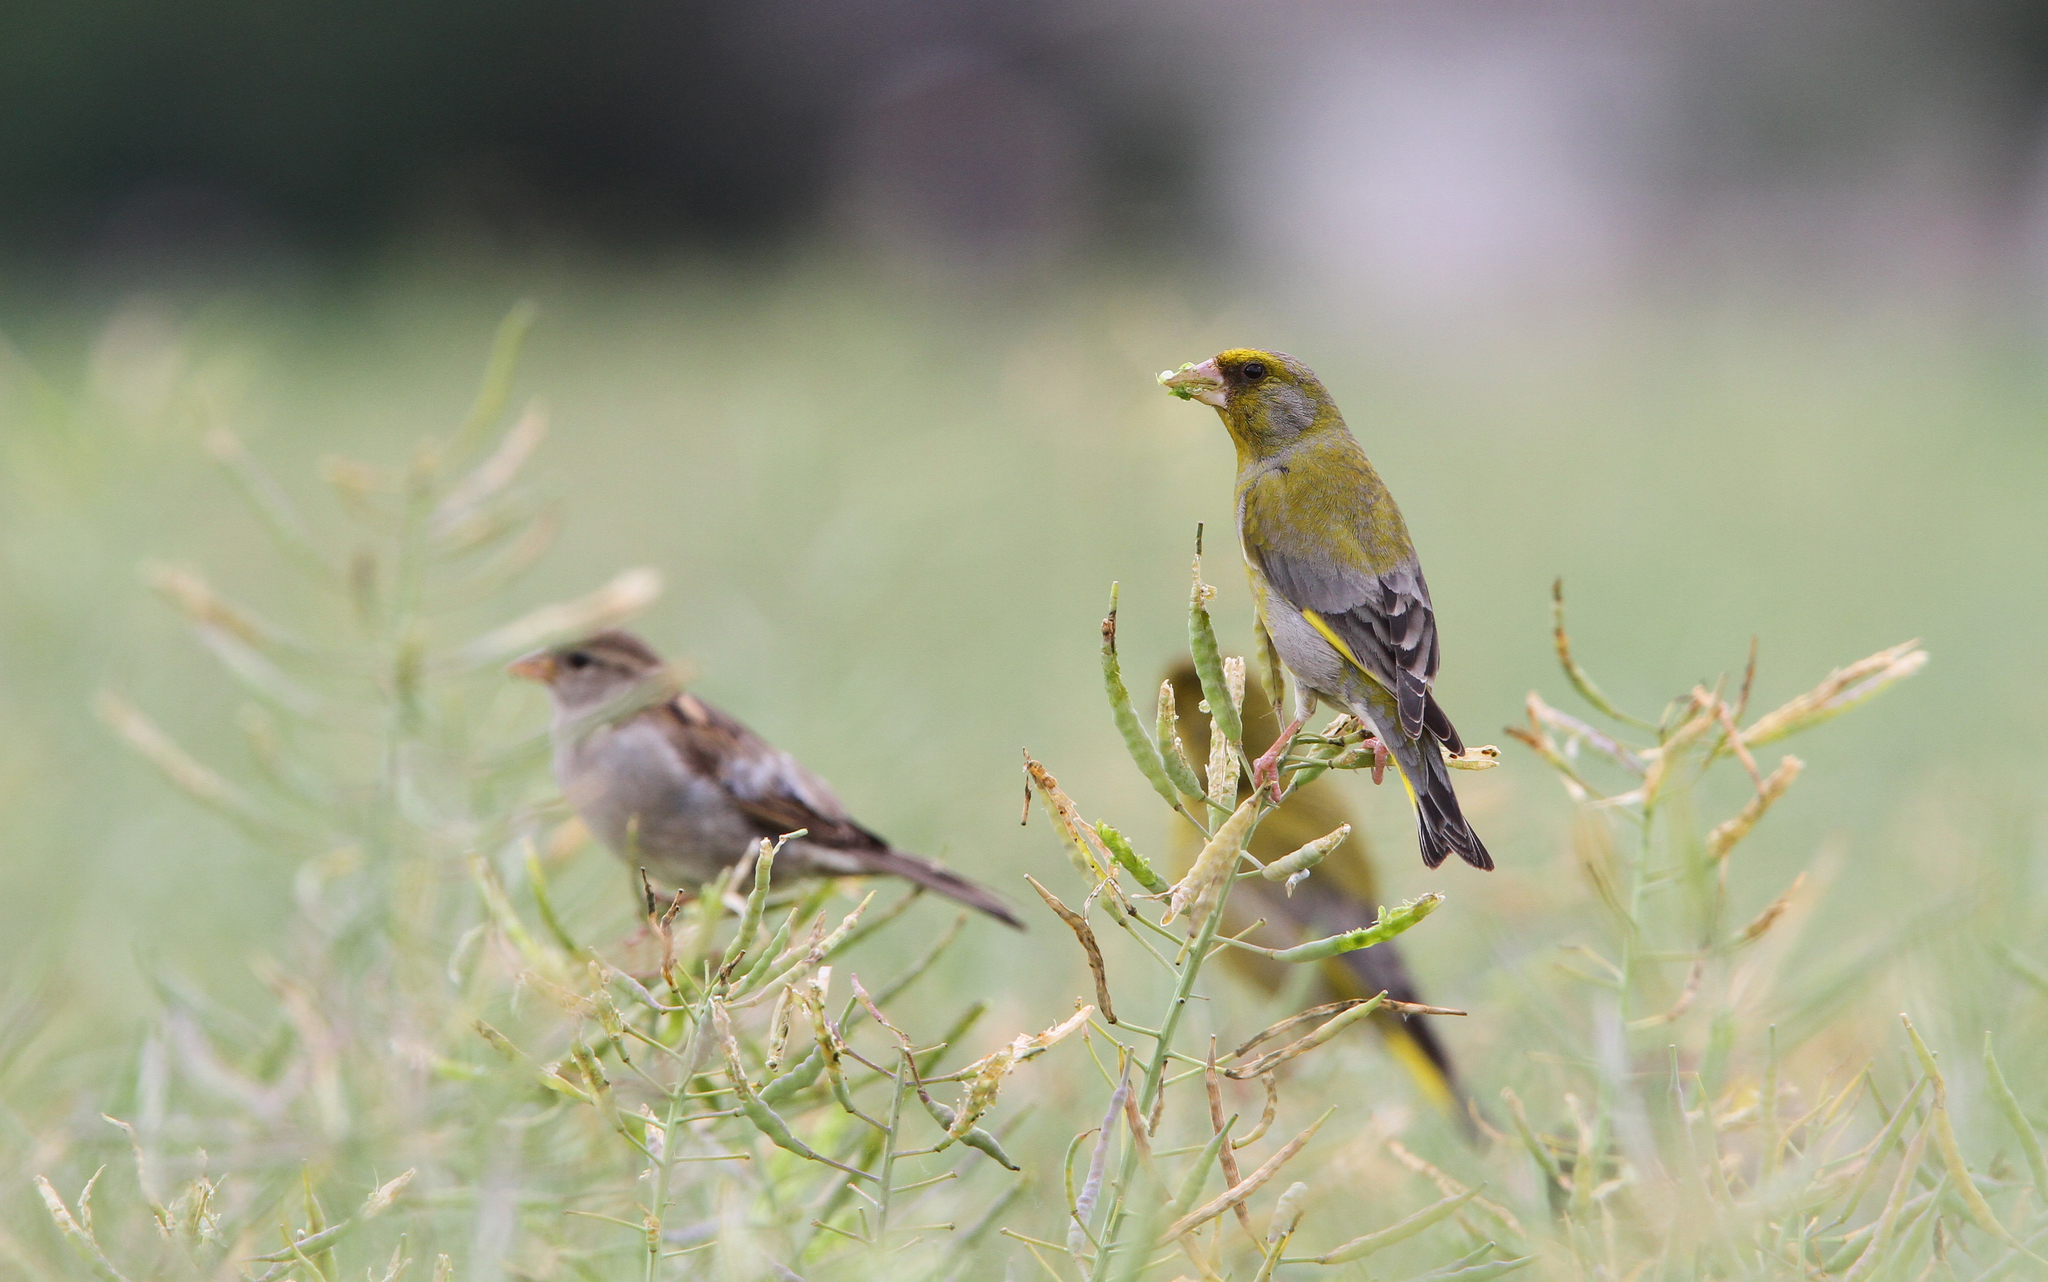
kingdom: Plantae
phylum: Tracheophyta
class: Liliopsida
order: Poales
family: Poaceae
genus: Chloris
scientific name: Chloris chloris
